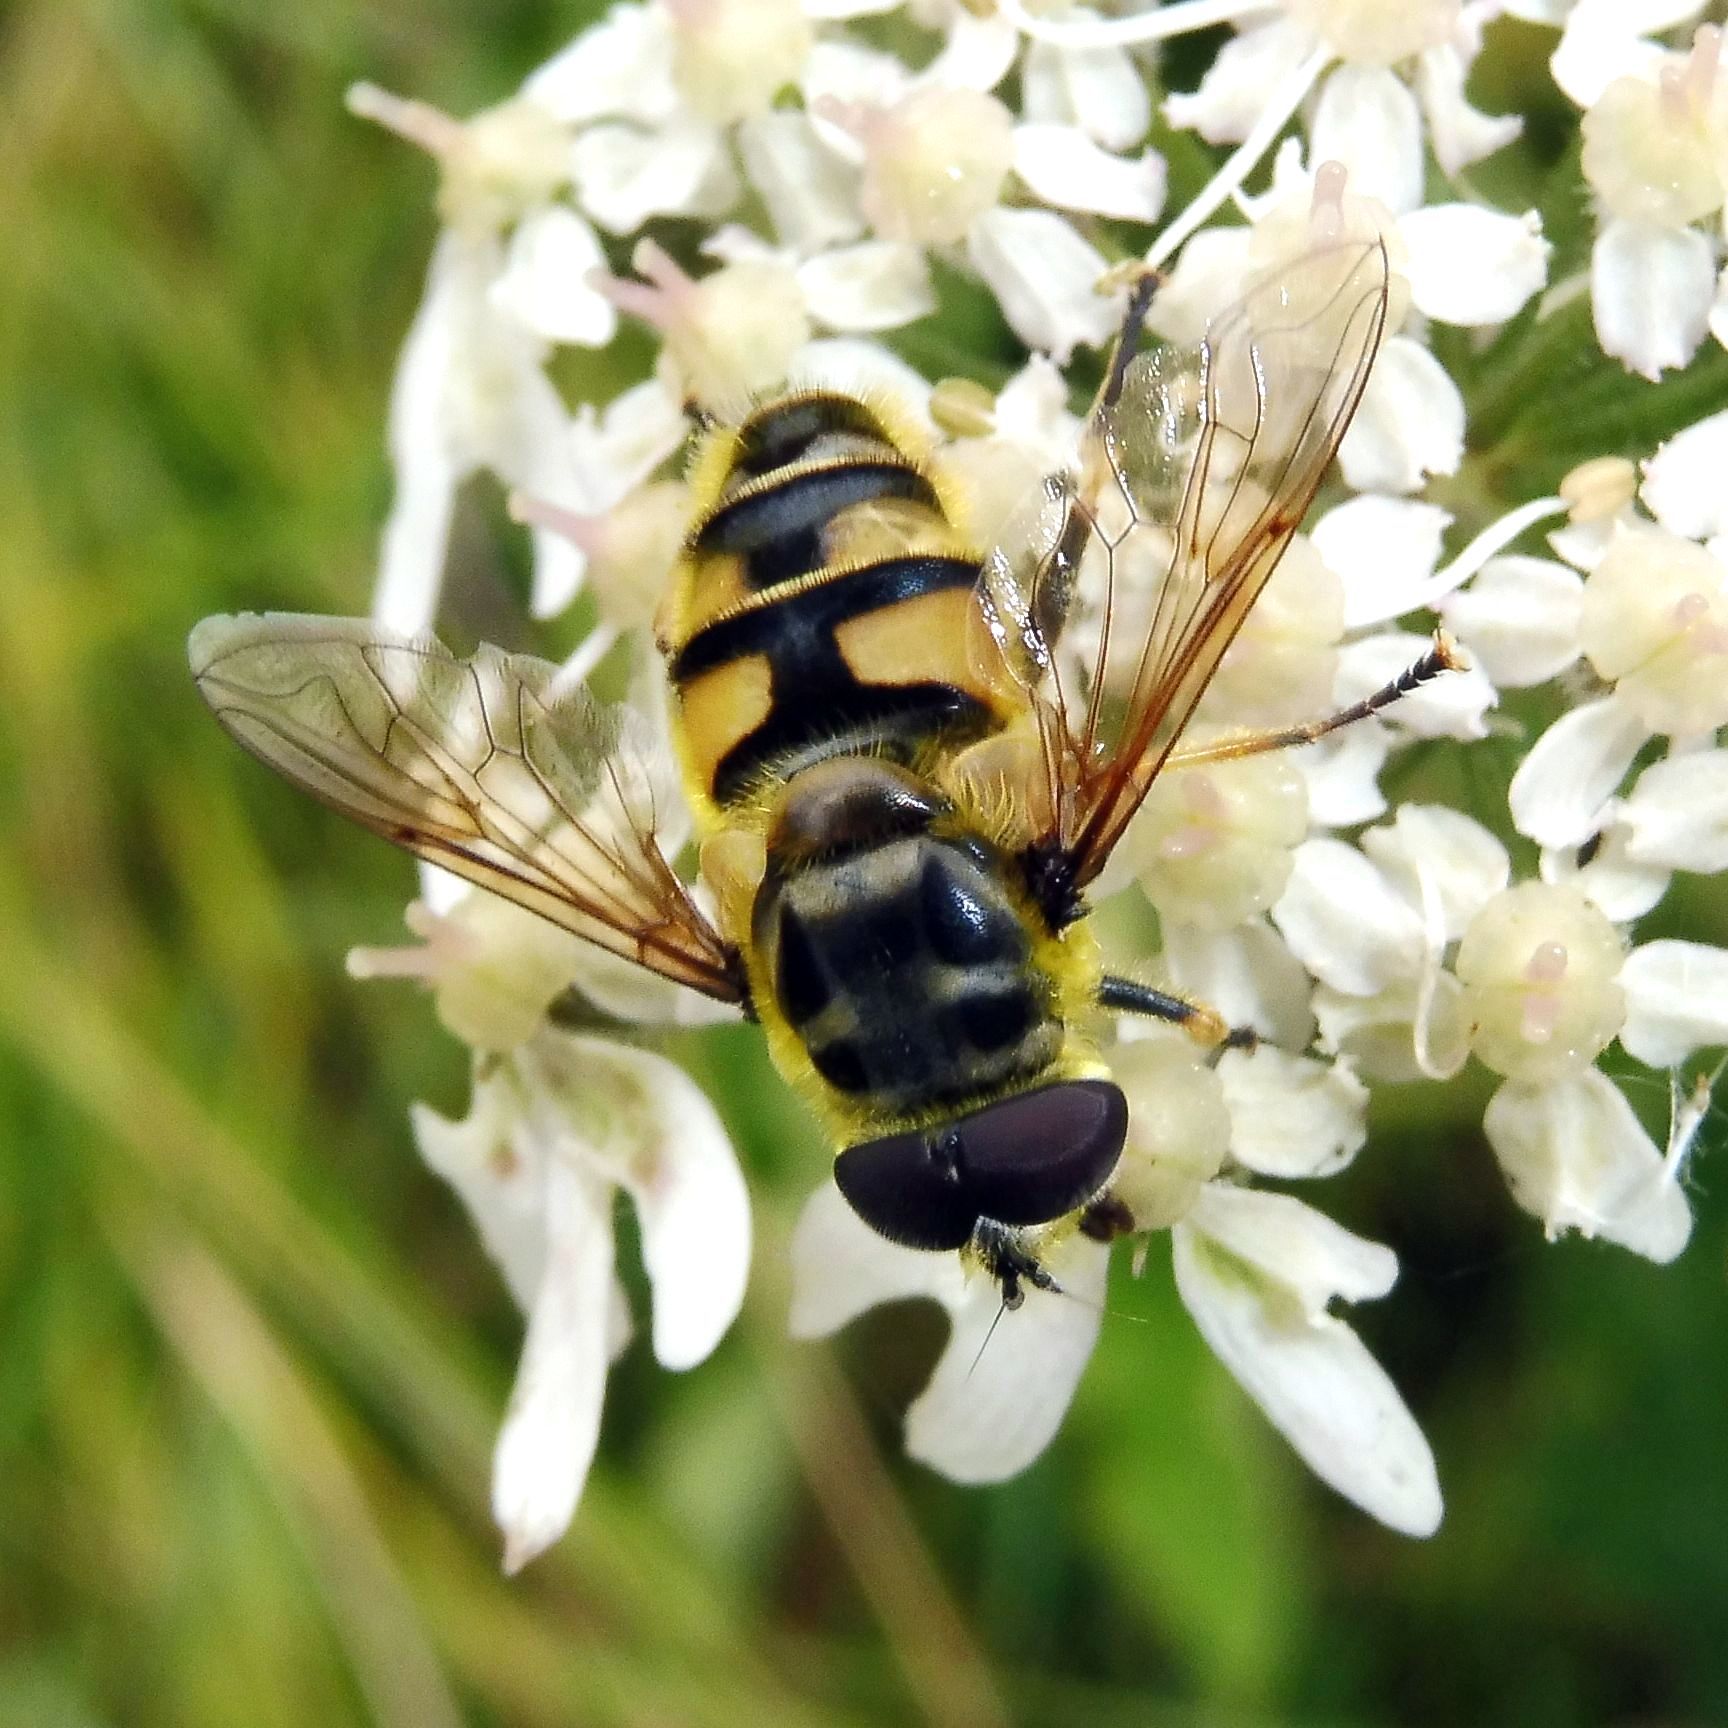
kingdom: Animalia
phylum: Arthropoda
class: Insecta
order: Diptera
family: Syrphidae
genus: Myathropa
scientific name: Myathropa florea
